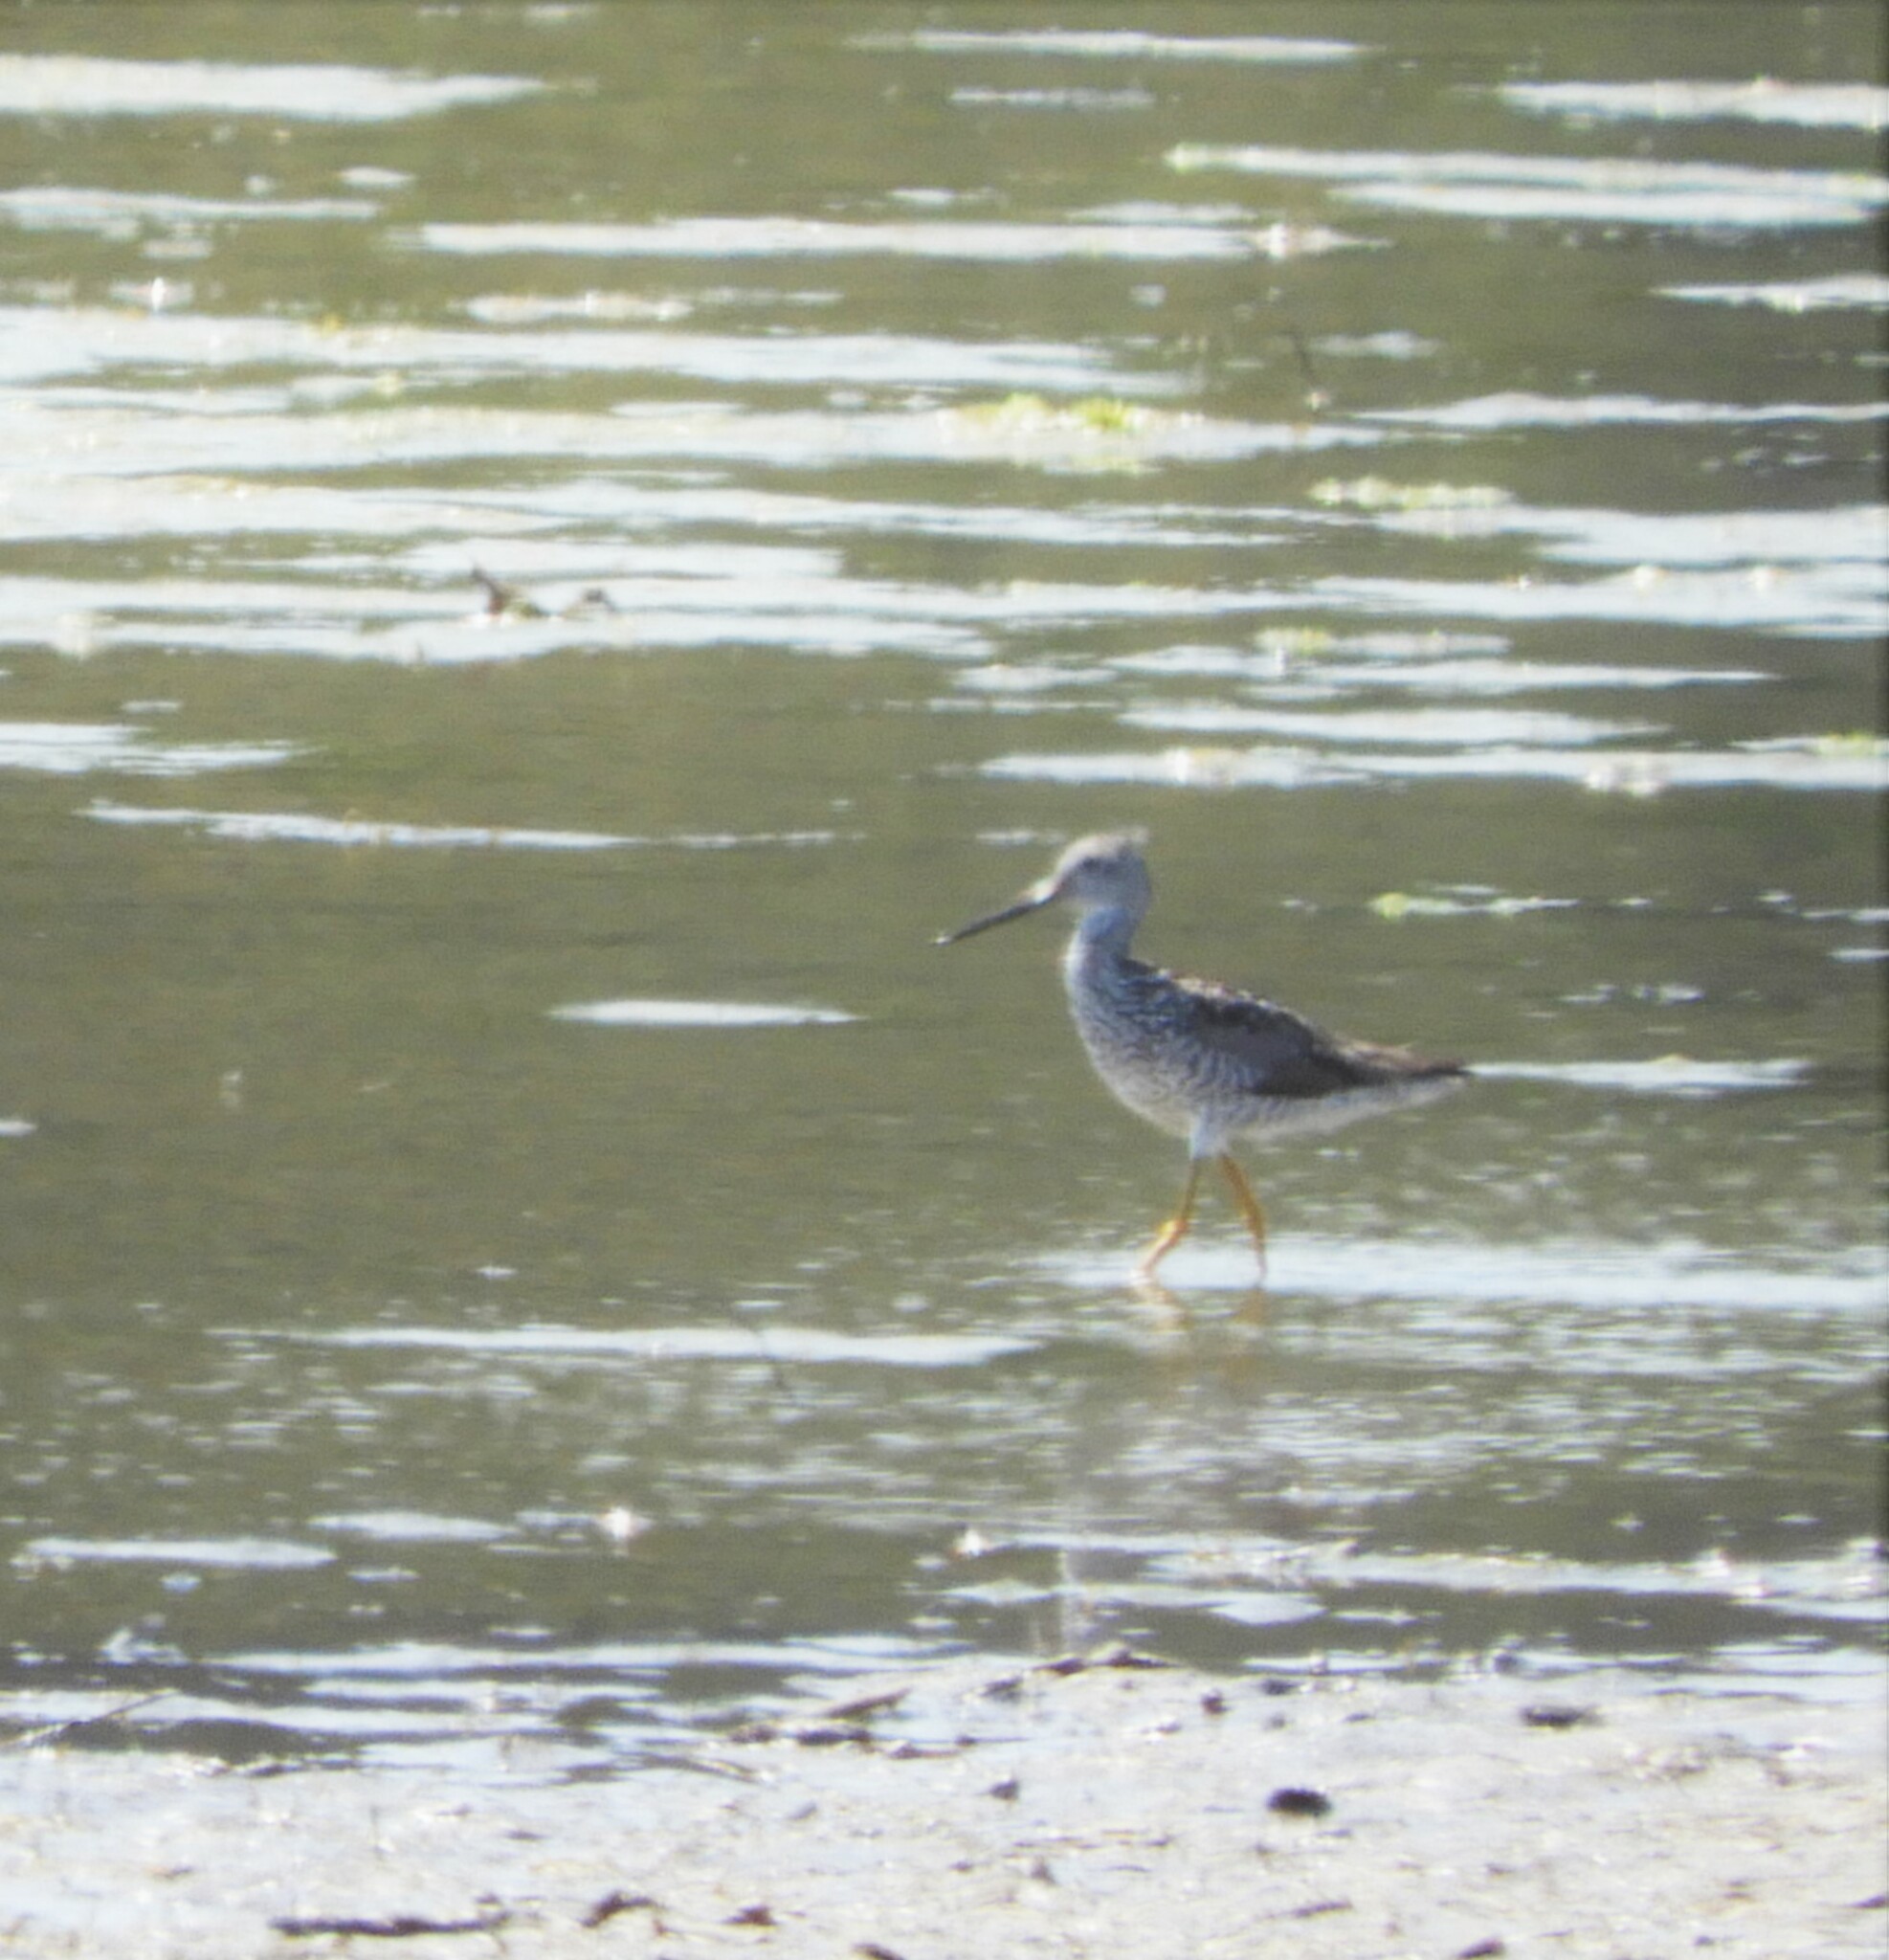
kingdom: Animalia
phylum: Chordata
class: Aves
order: Charadriiformes
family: Scolopacidae
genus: Tringa
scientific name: Tringa melanoleuca
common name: Greater yellowlegs
